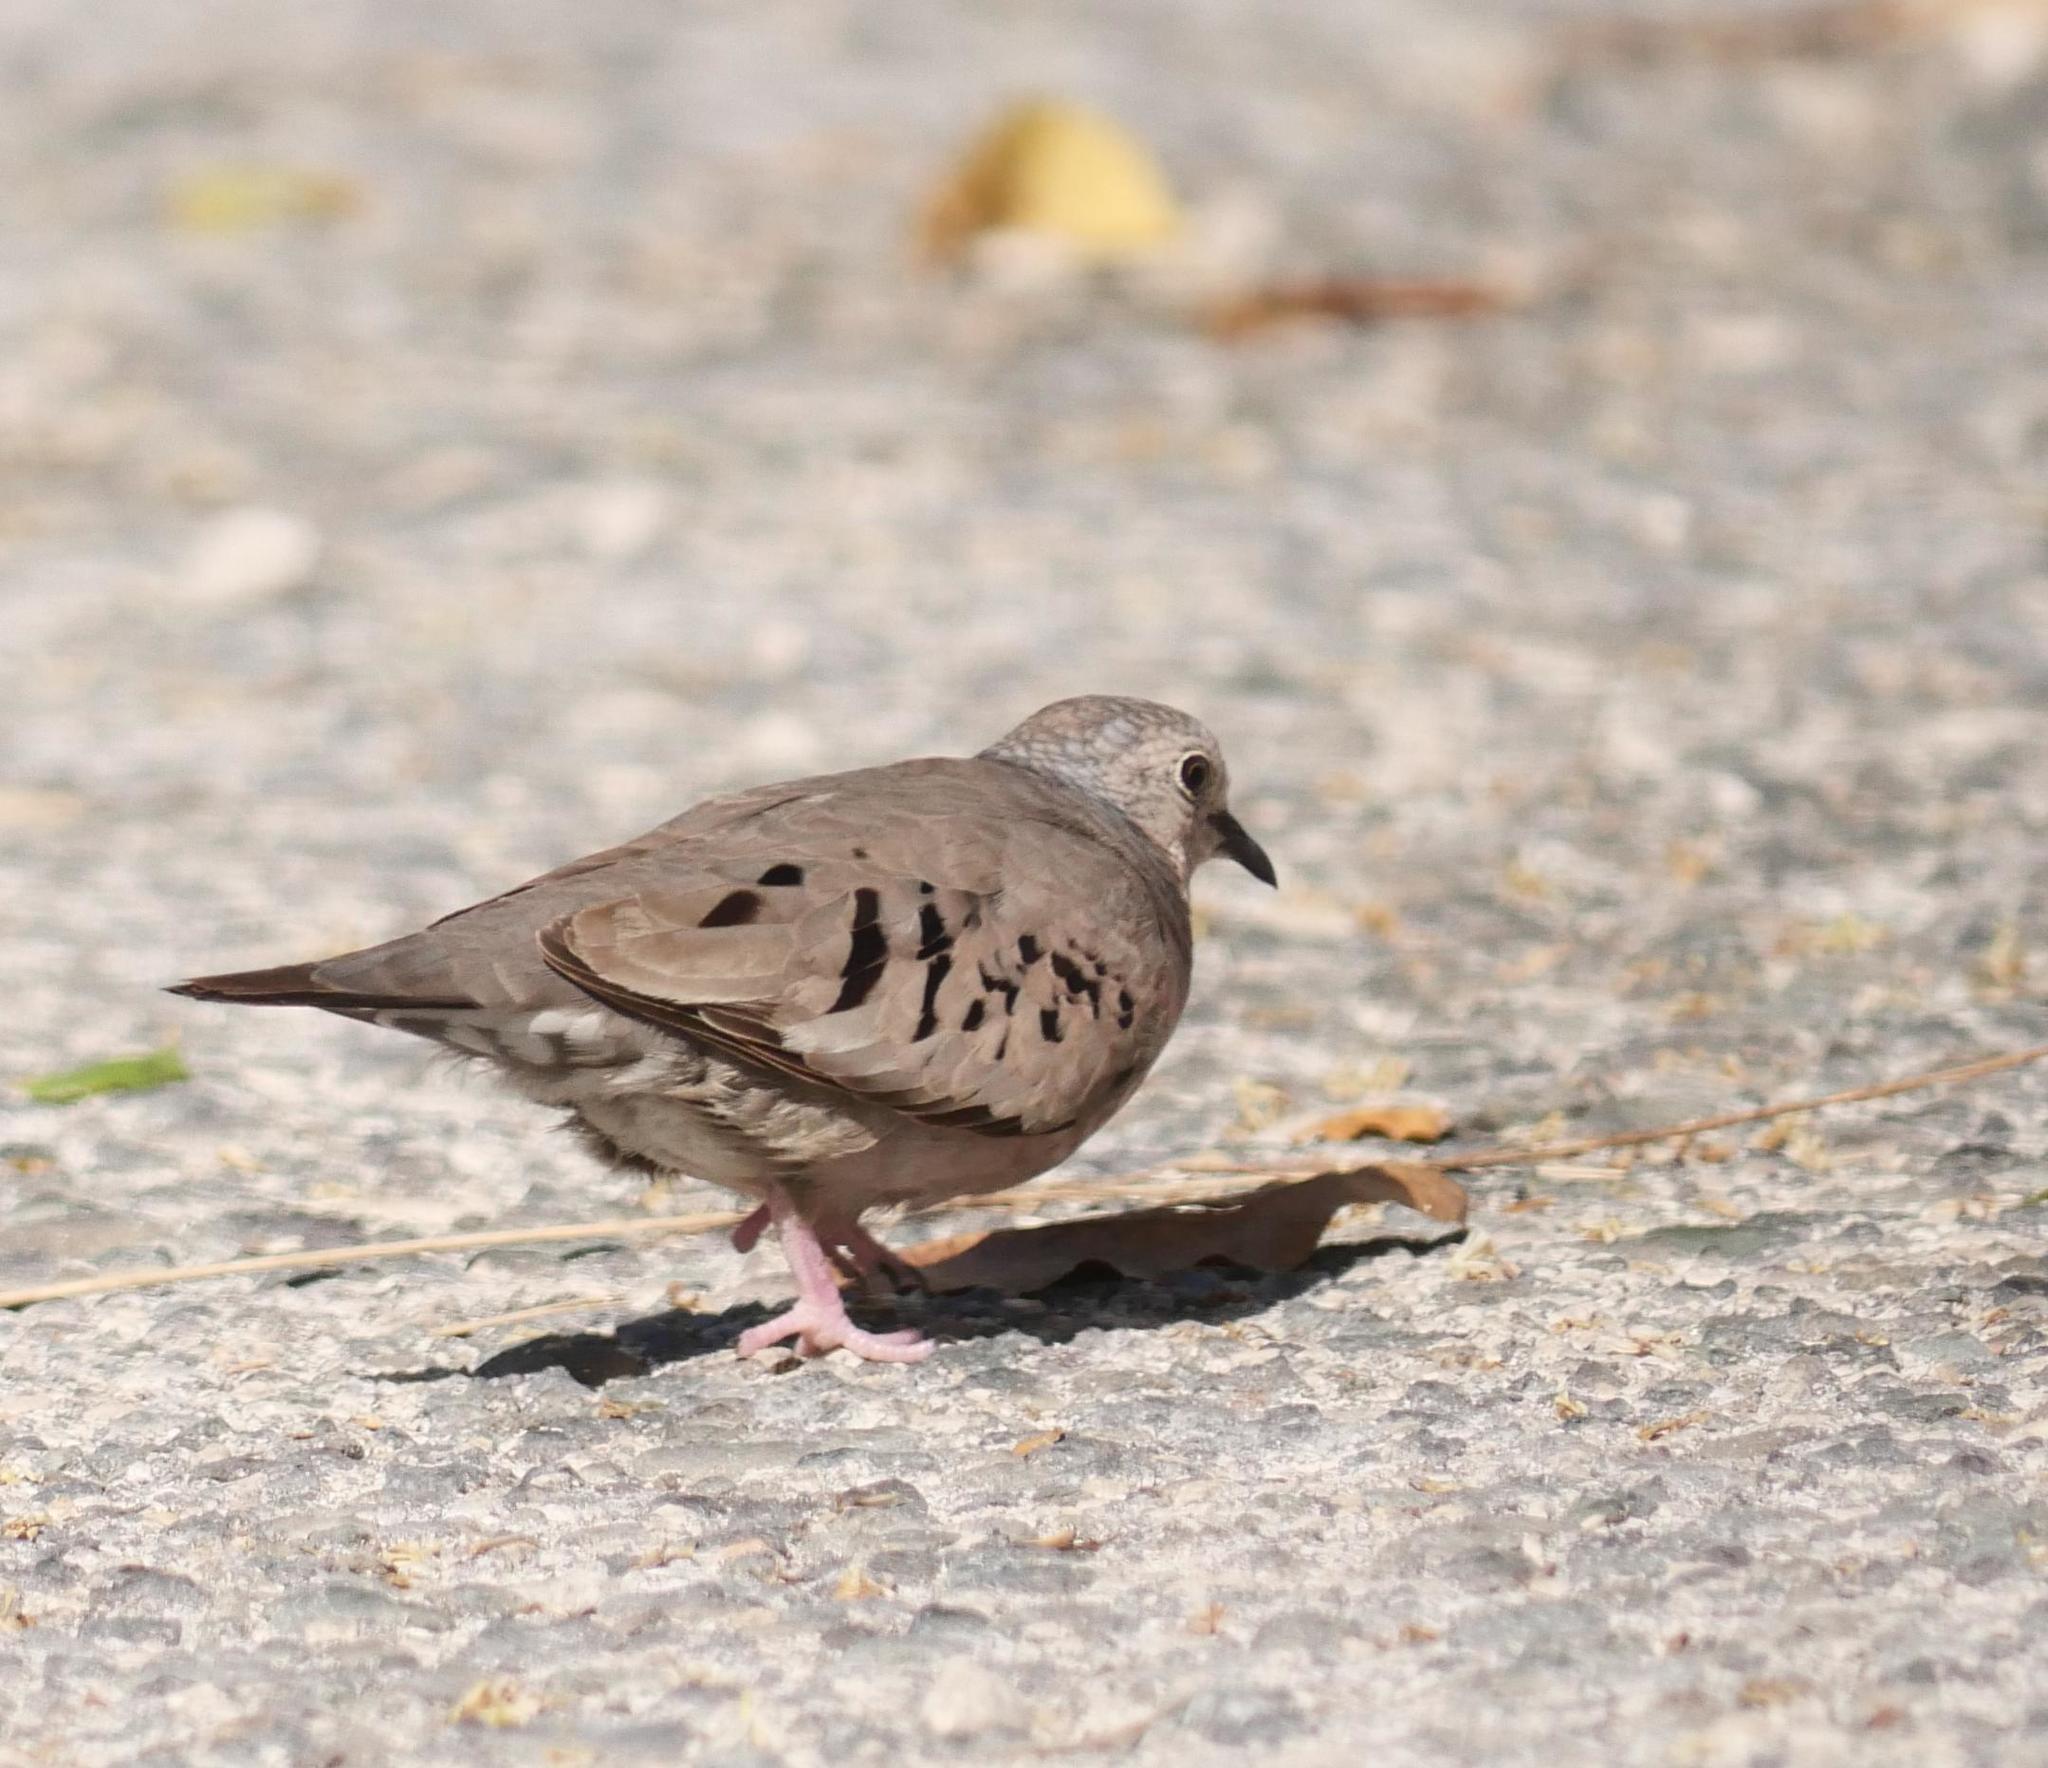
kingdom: Animalia
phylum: Chordata
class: Aves
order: Columbiformes
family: Columbidae
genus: Columbina
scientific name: Columbina passerina
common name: Common ground-dove
